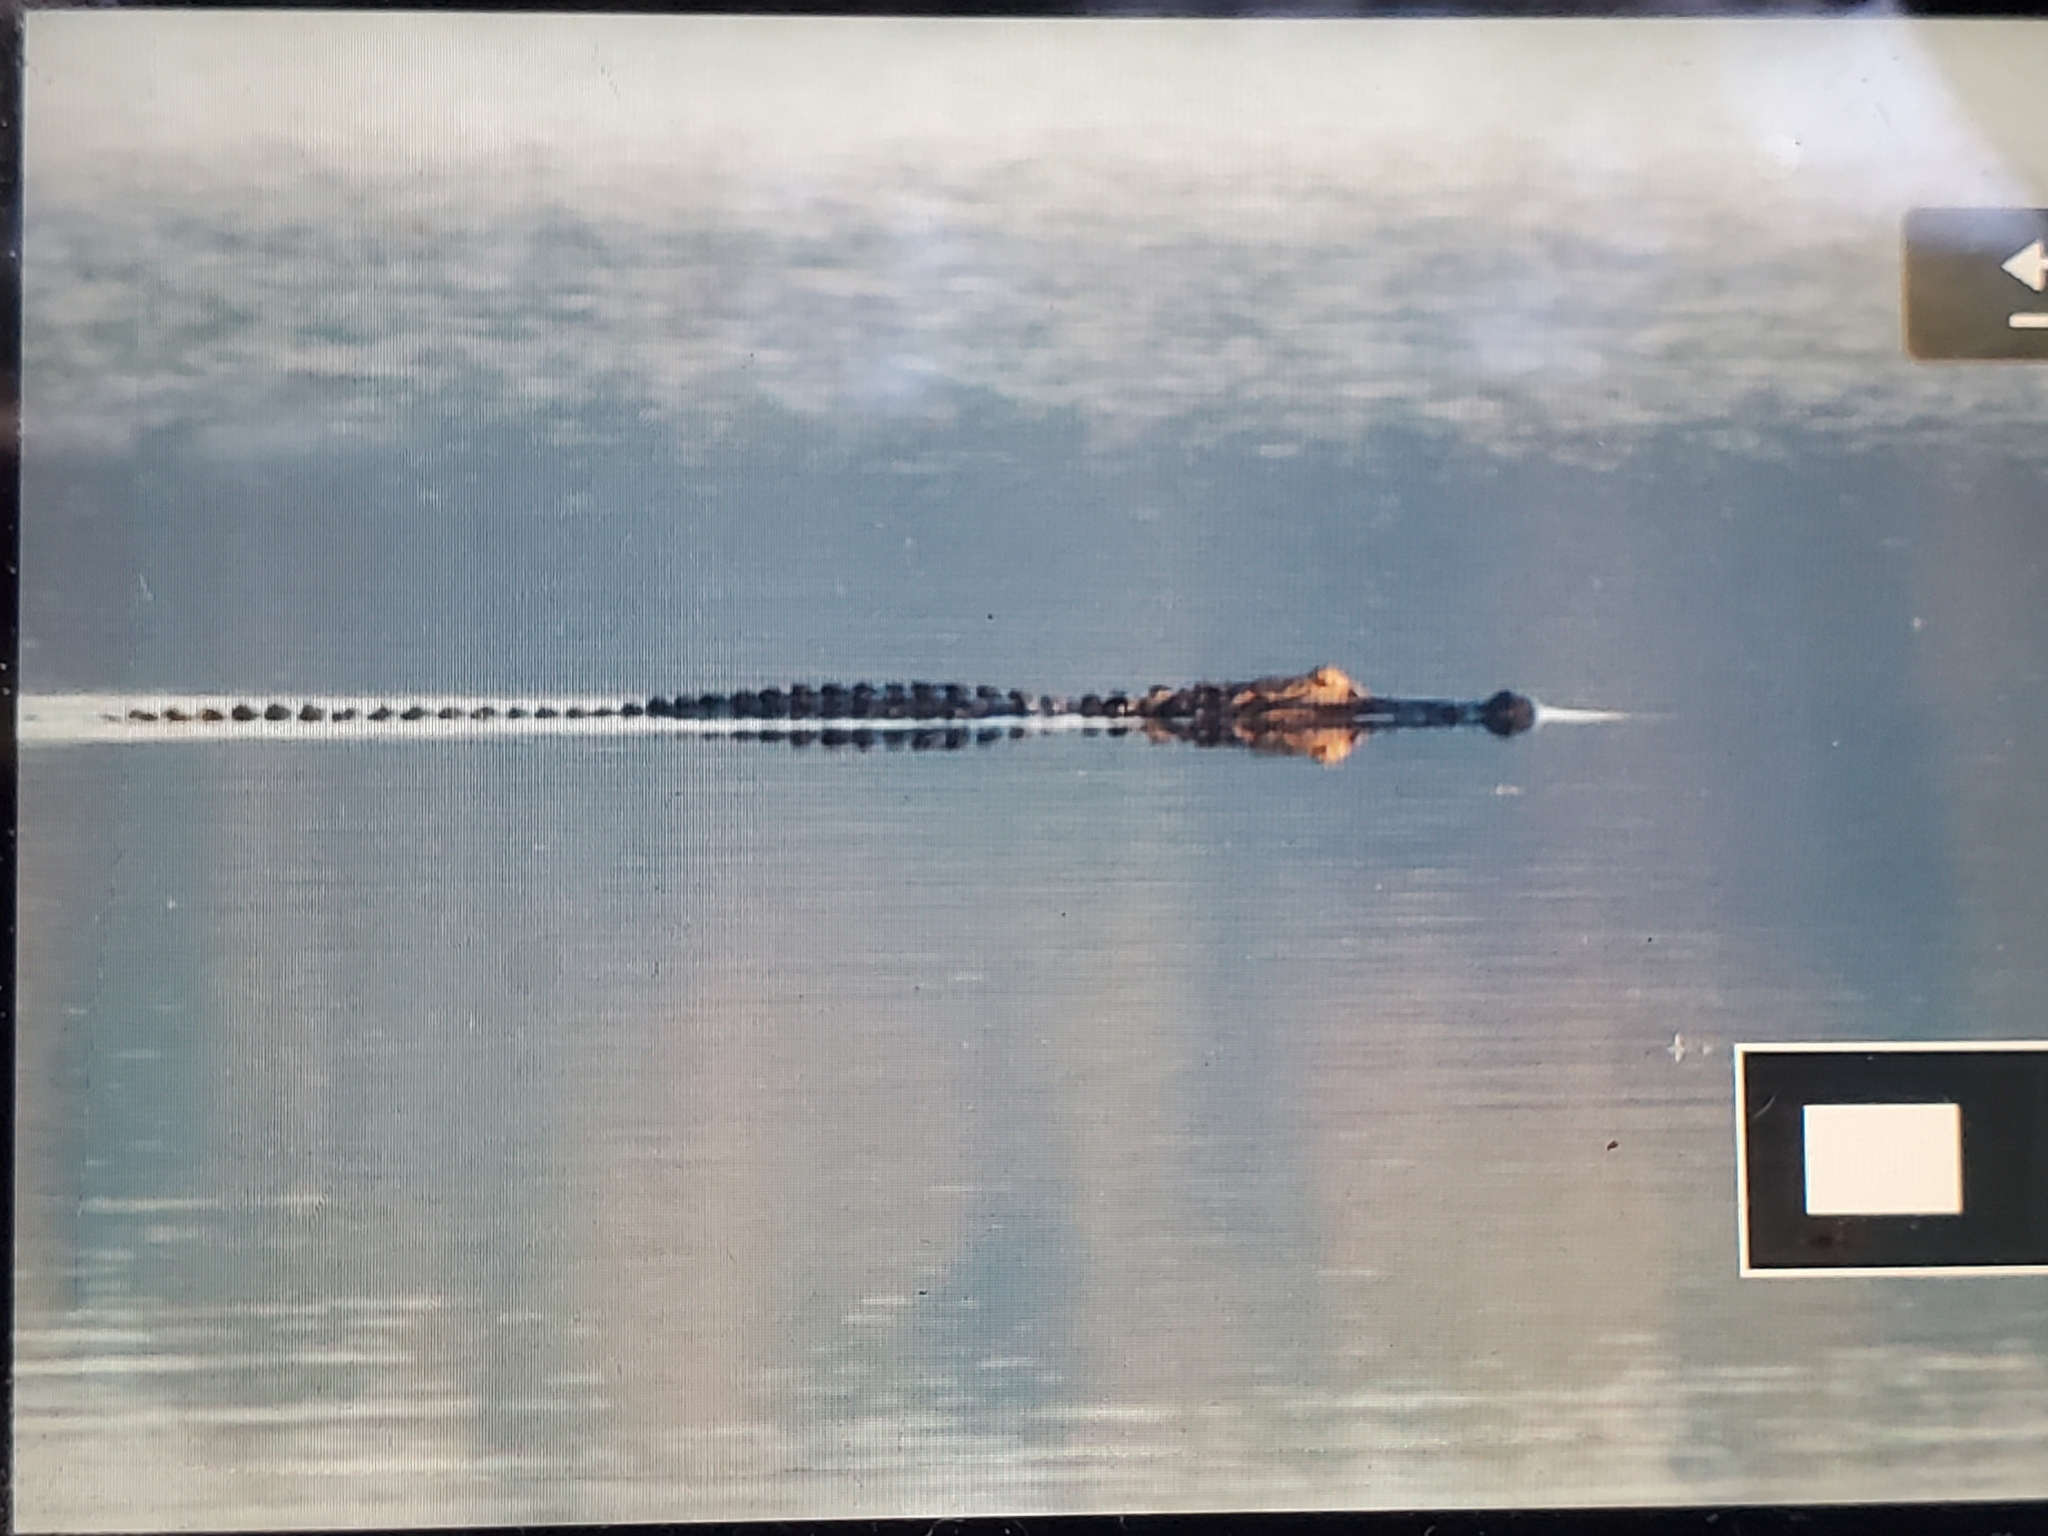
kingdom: Animalia
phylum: Chordata
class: Crocodylia
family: Alligatoridae
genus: Alligator
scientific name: Alligator mississippiensis
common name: American alligator
